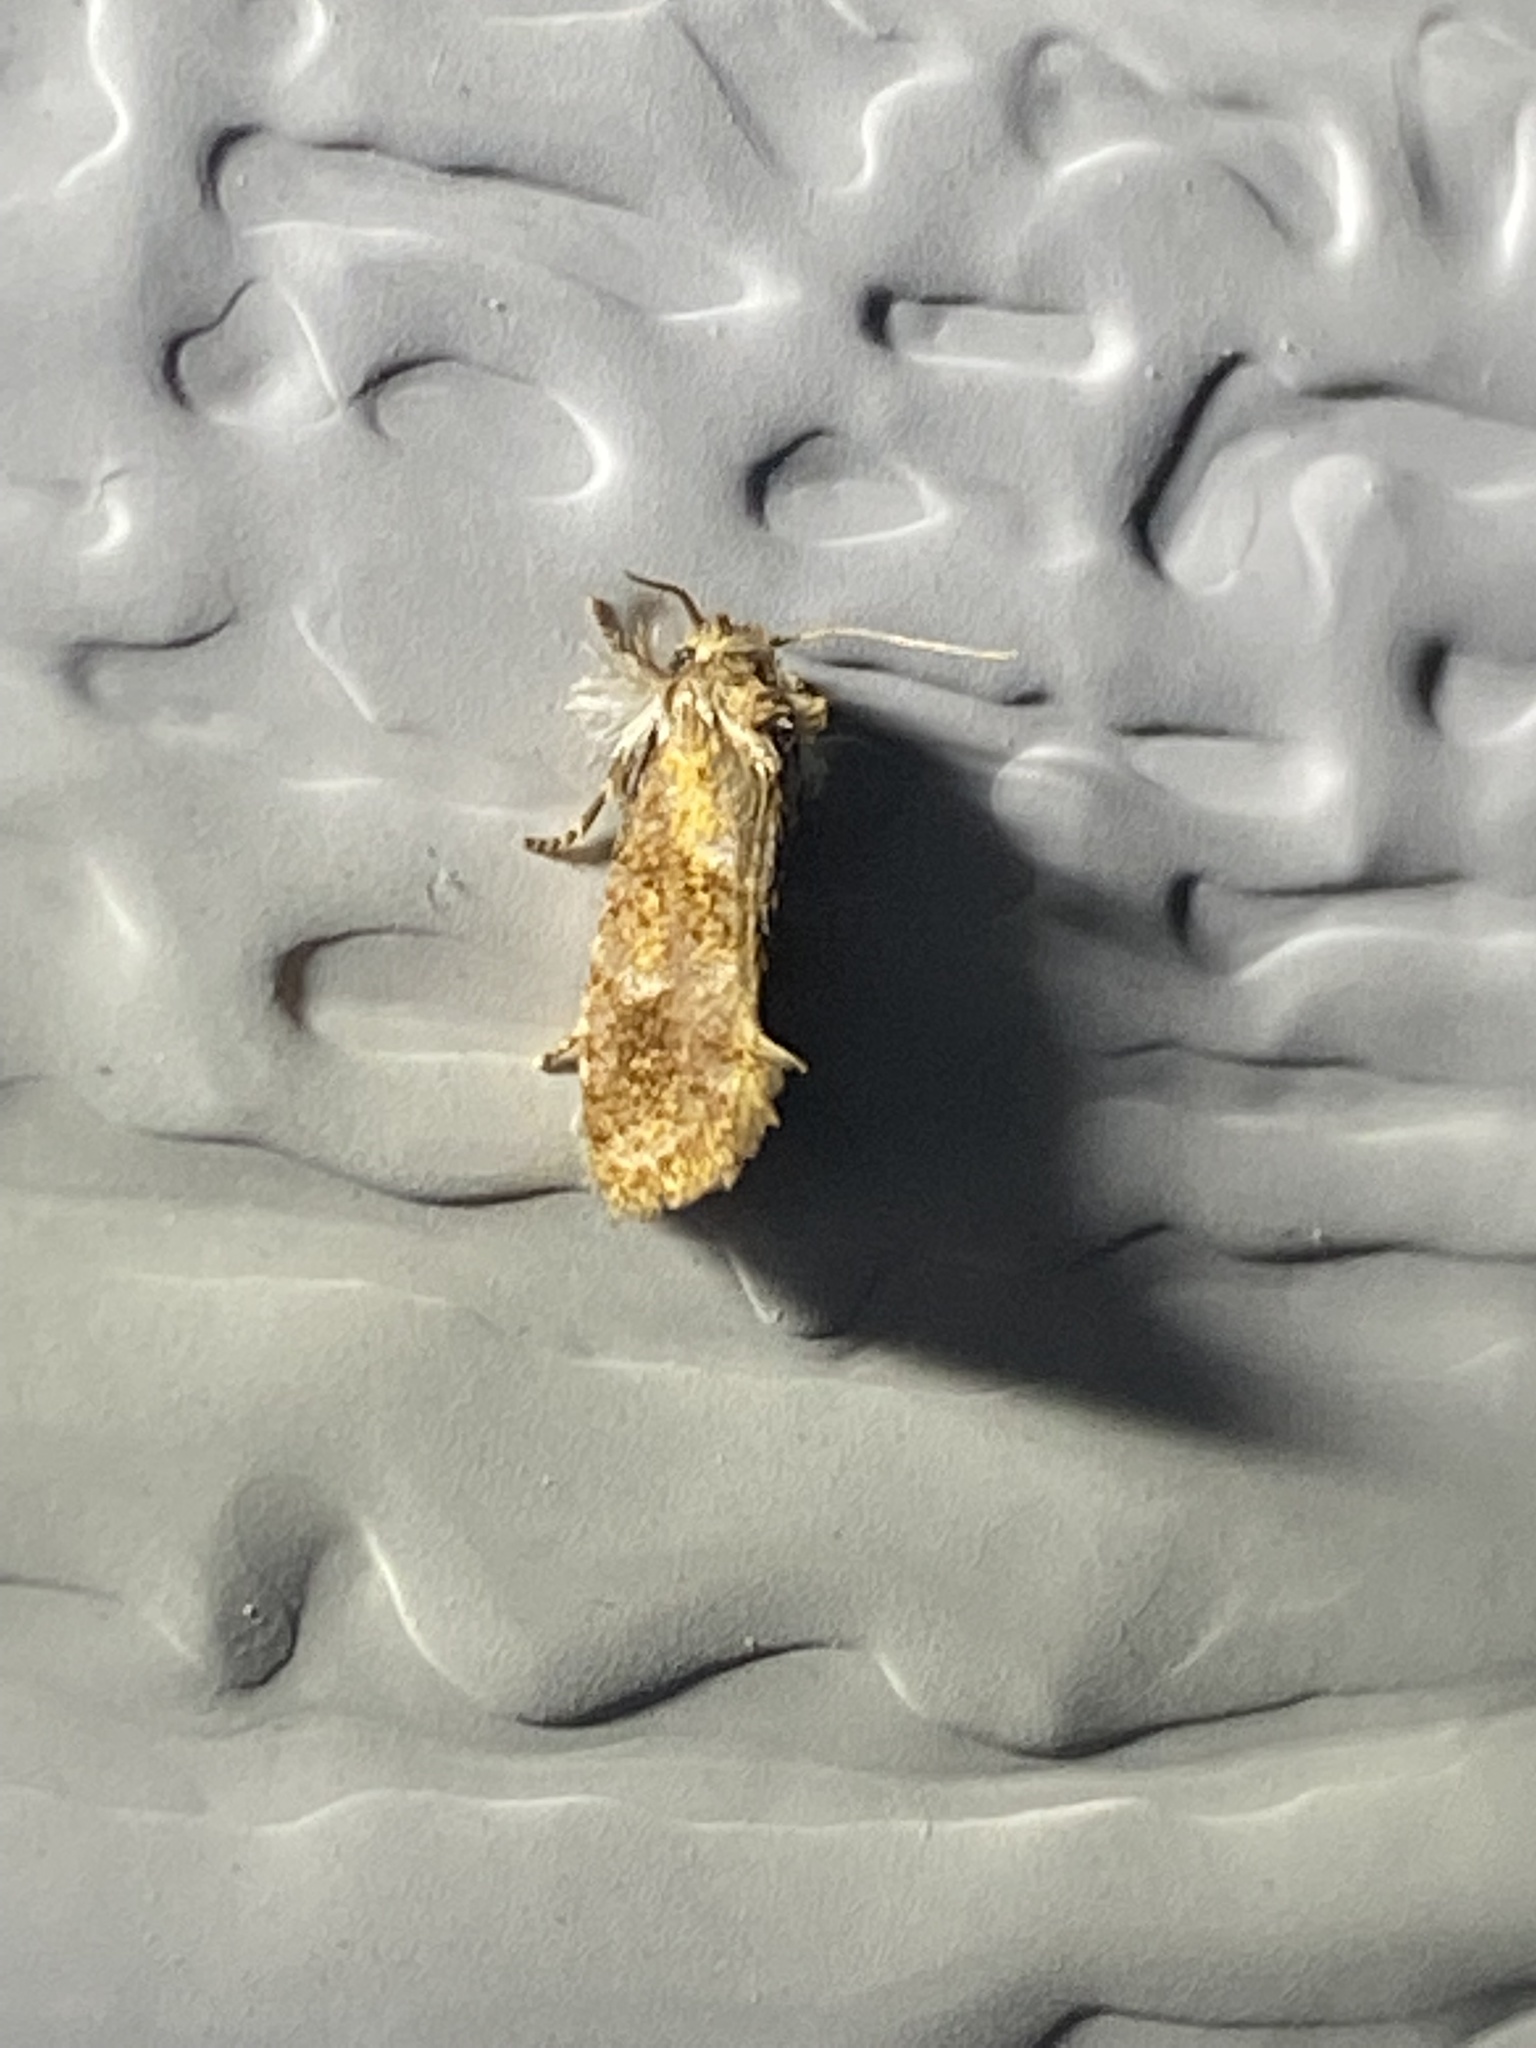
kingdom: Animalia
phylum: Arthropoda
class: Insecta
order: Lepidoptera
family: Tineidae
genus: Acrolophus
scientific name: Acrolophus panamae
